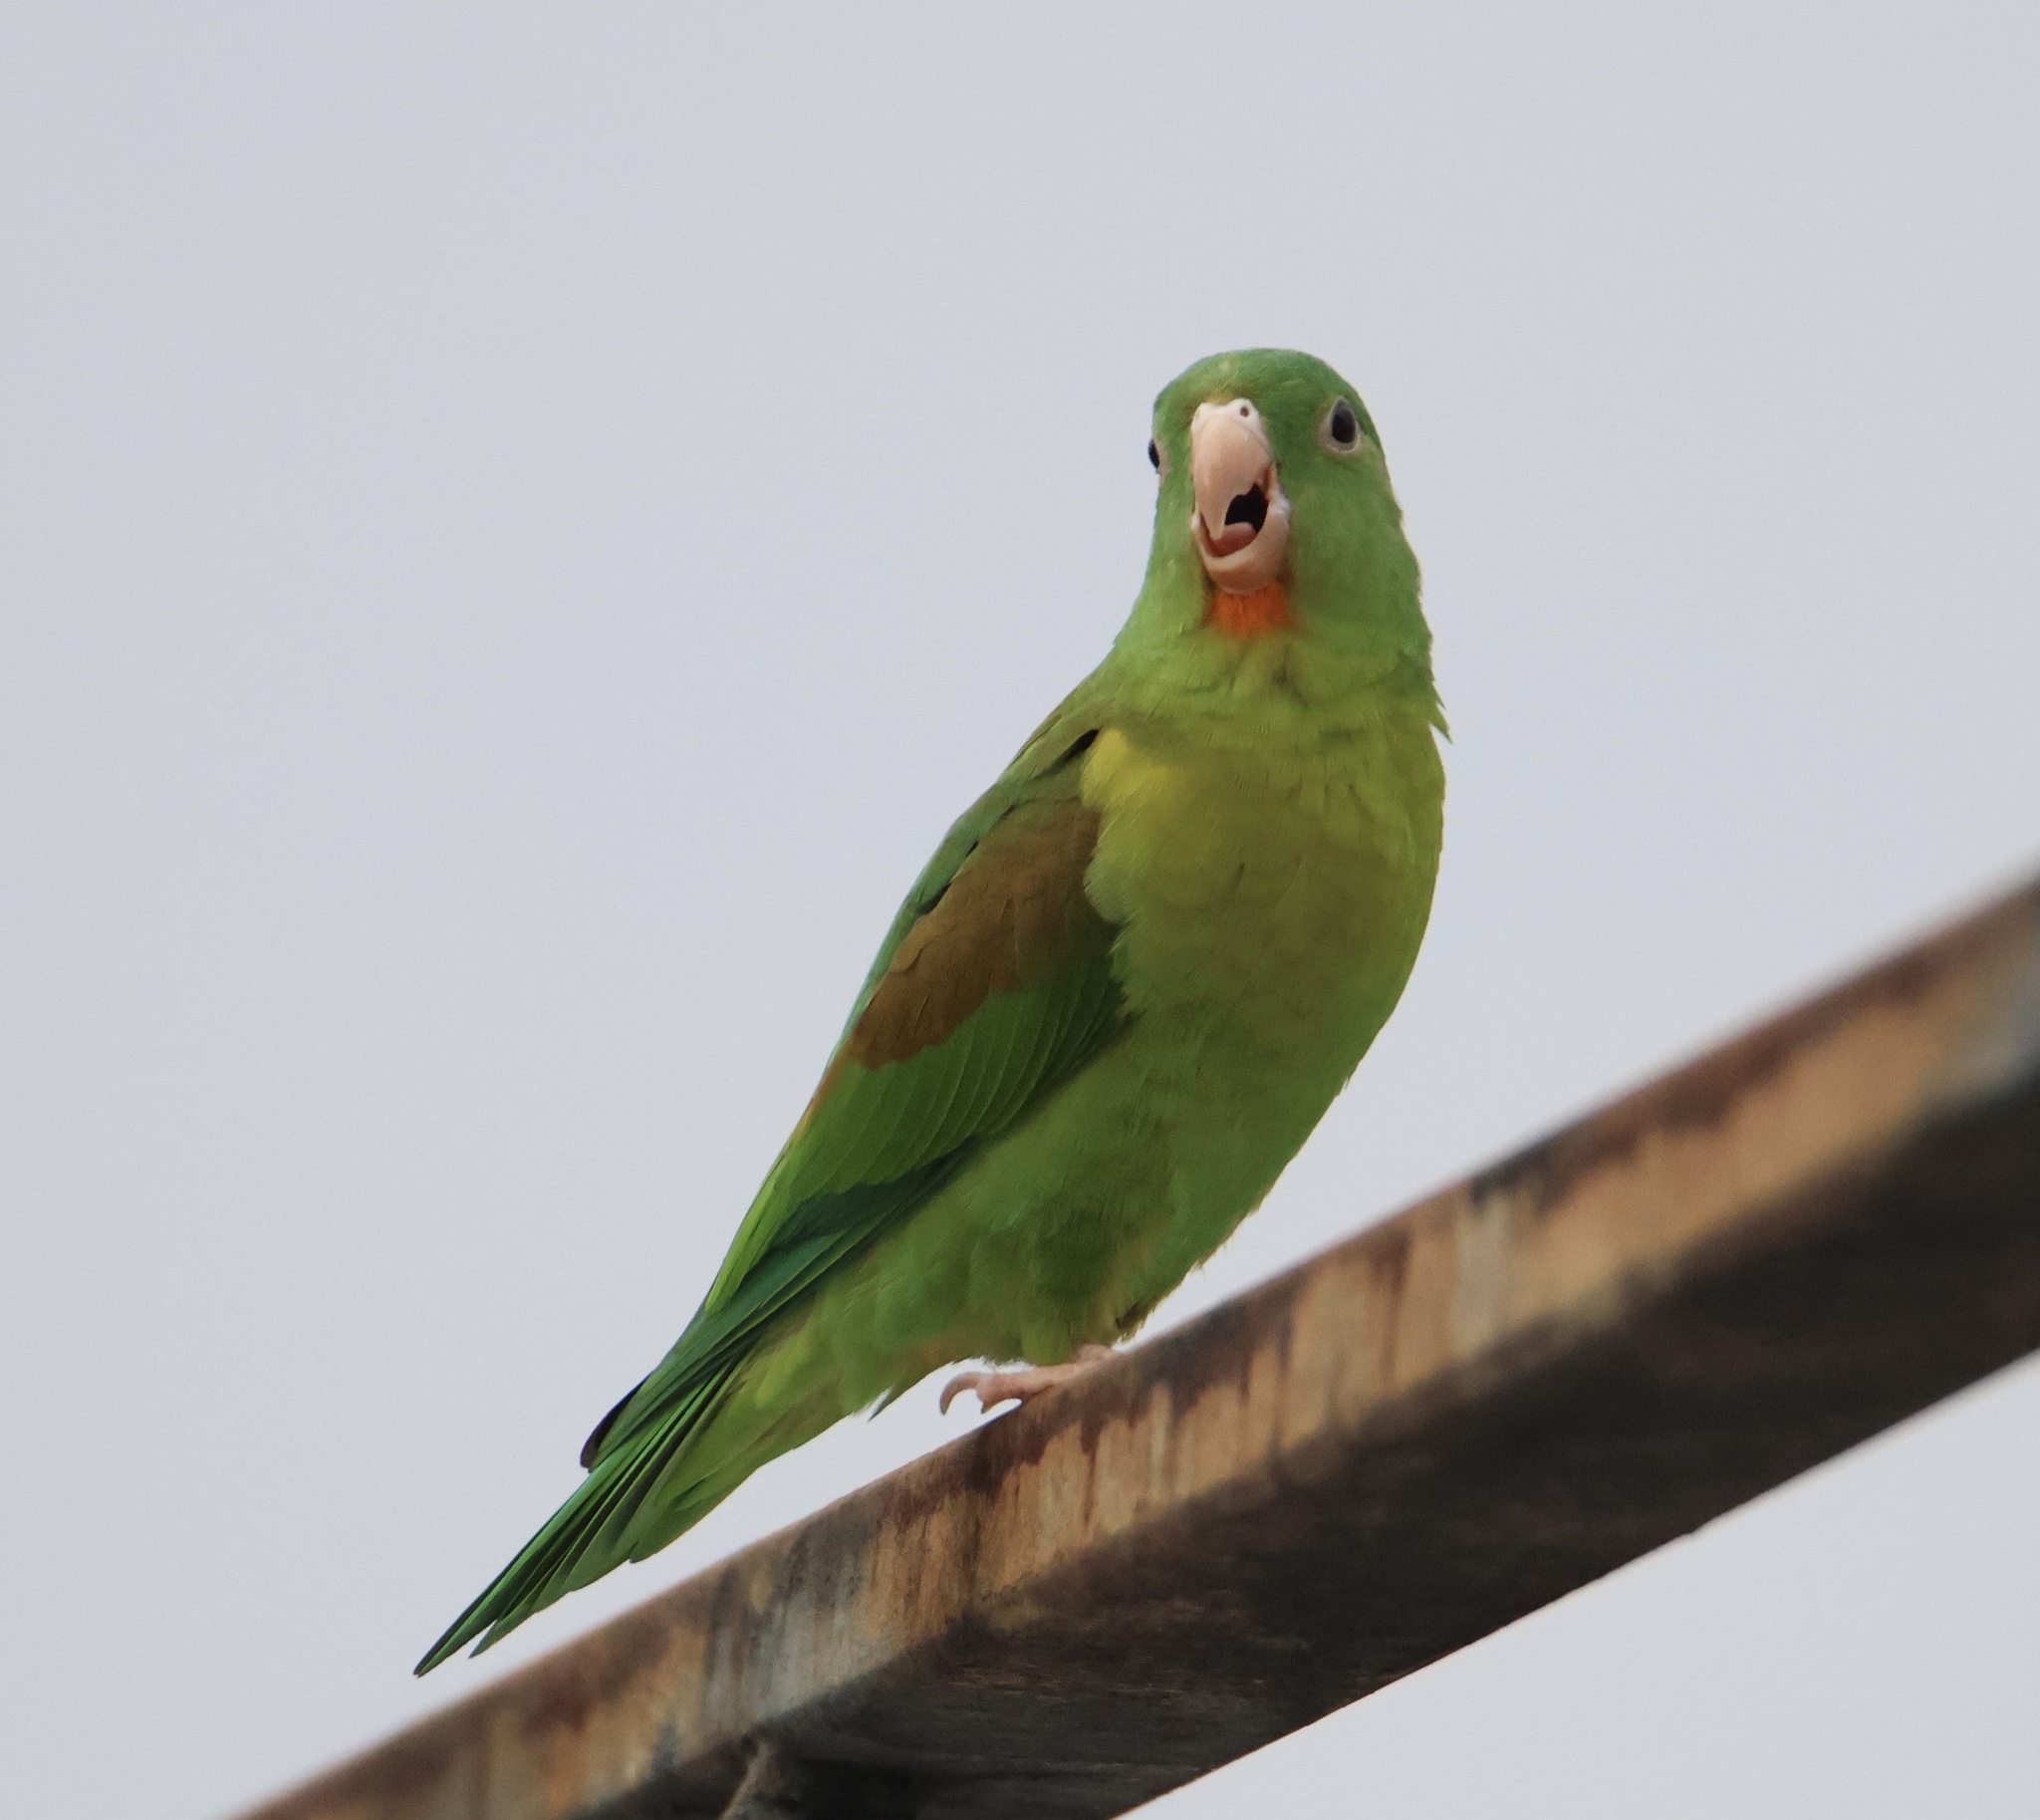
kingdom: Animalia
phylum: Chordata
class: Aves
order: Psittaciformes
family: Psittacidae
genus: Brotogeris
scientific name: Brotogeris jugularis
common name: Orange-chinned parakeet
